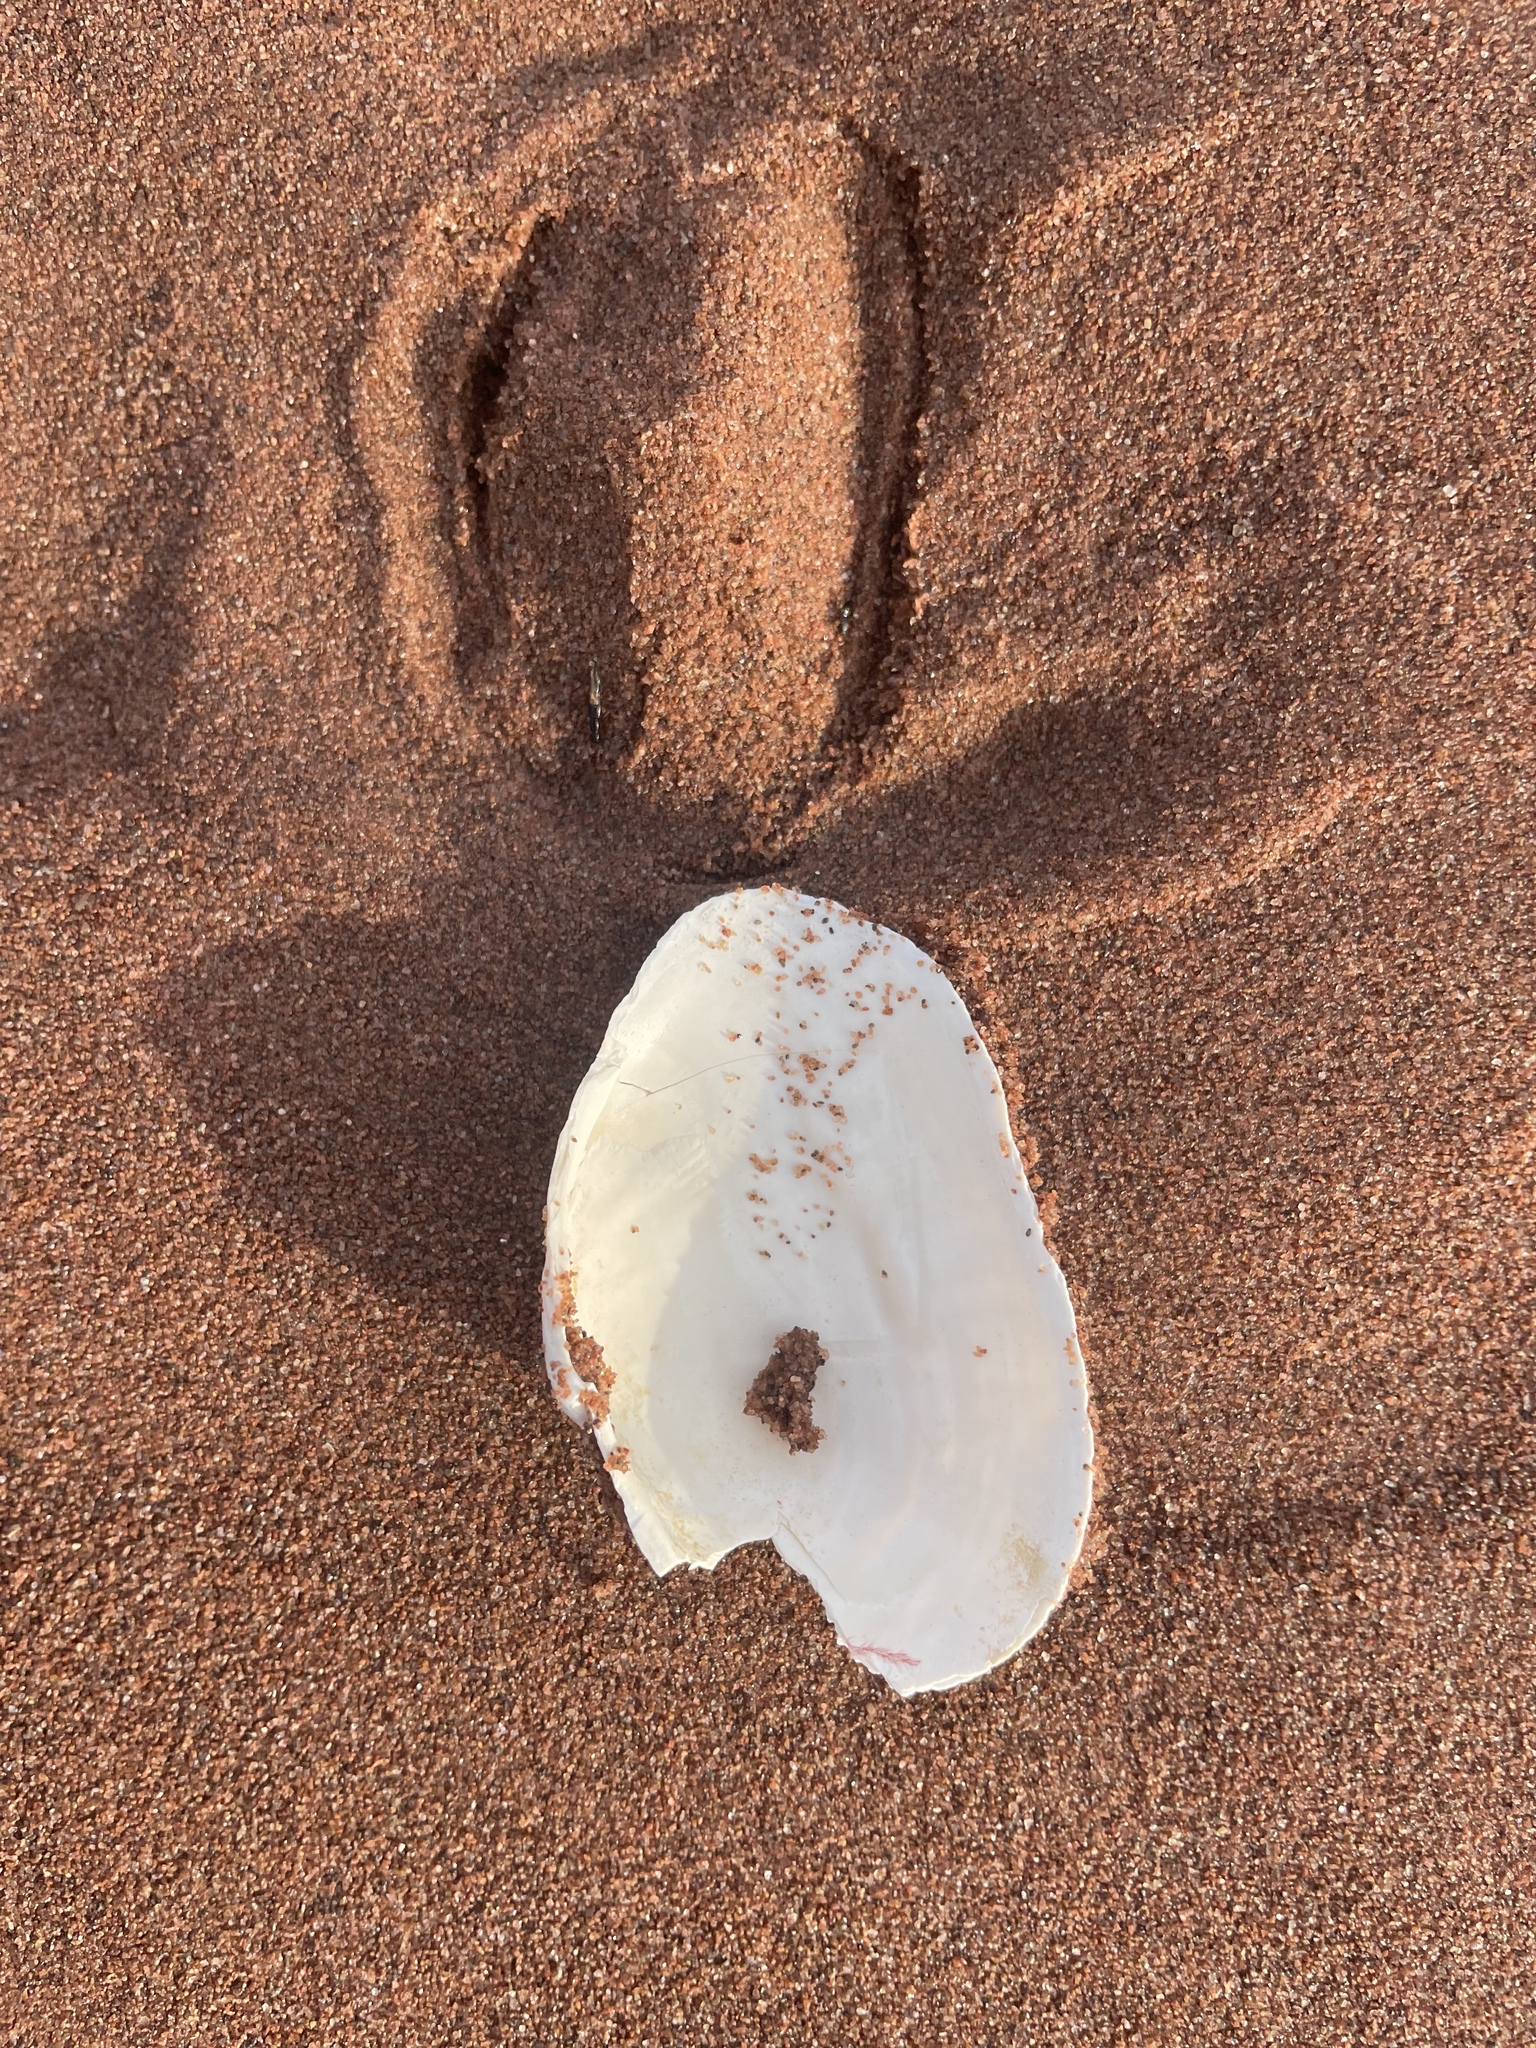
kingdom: Animalia
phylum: Mollusca
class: Bivalvia
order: Myida
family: Myidae
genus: Mya
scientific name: Mya arenaria
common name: Soft-shelled clam
